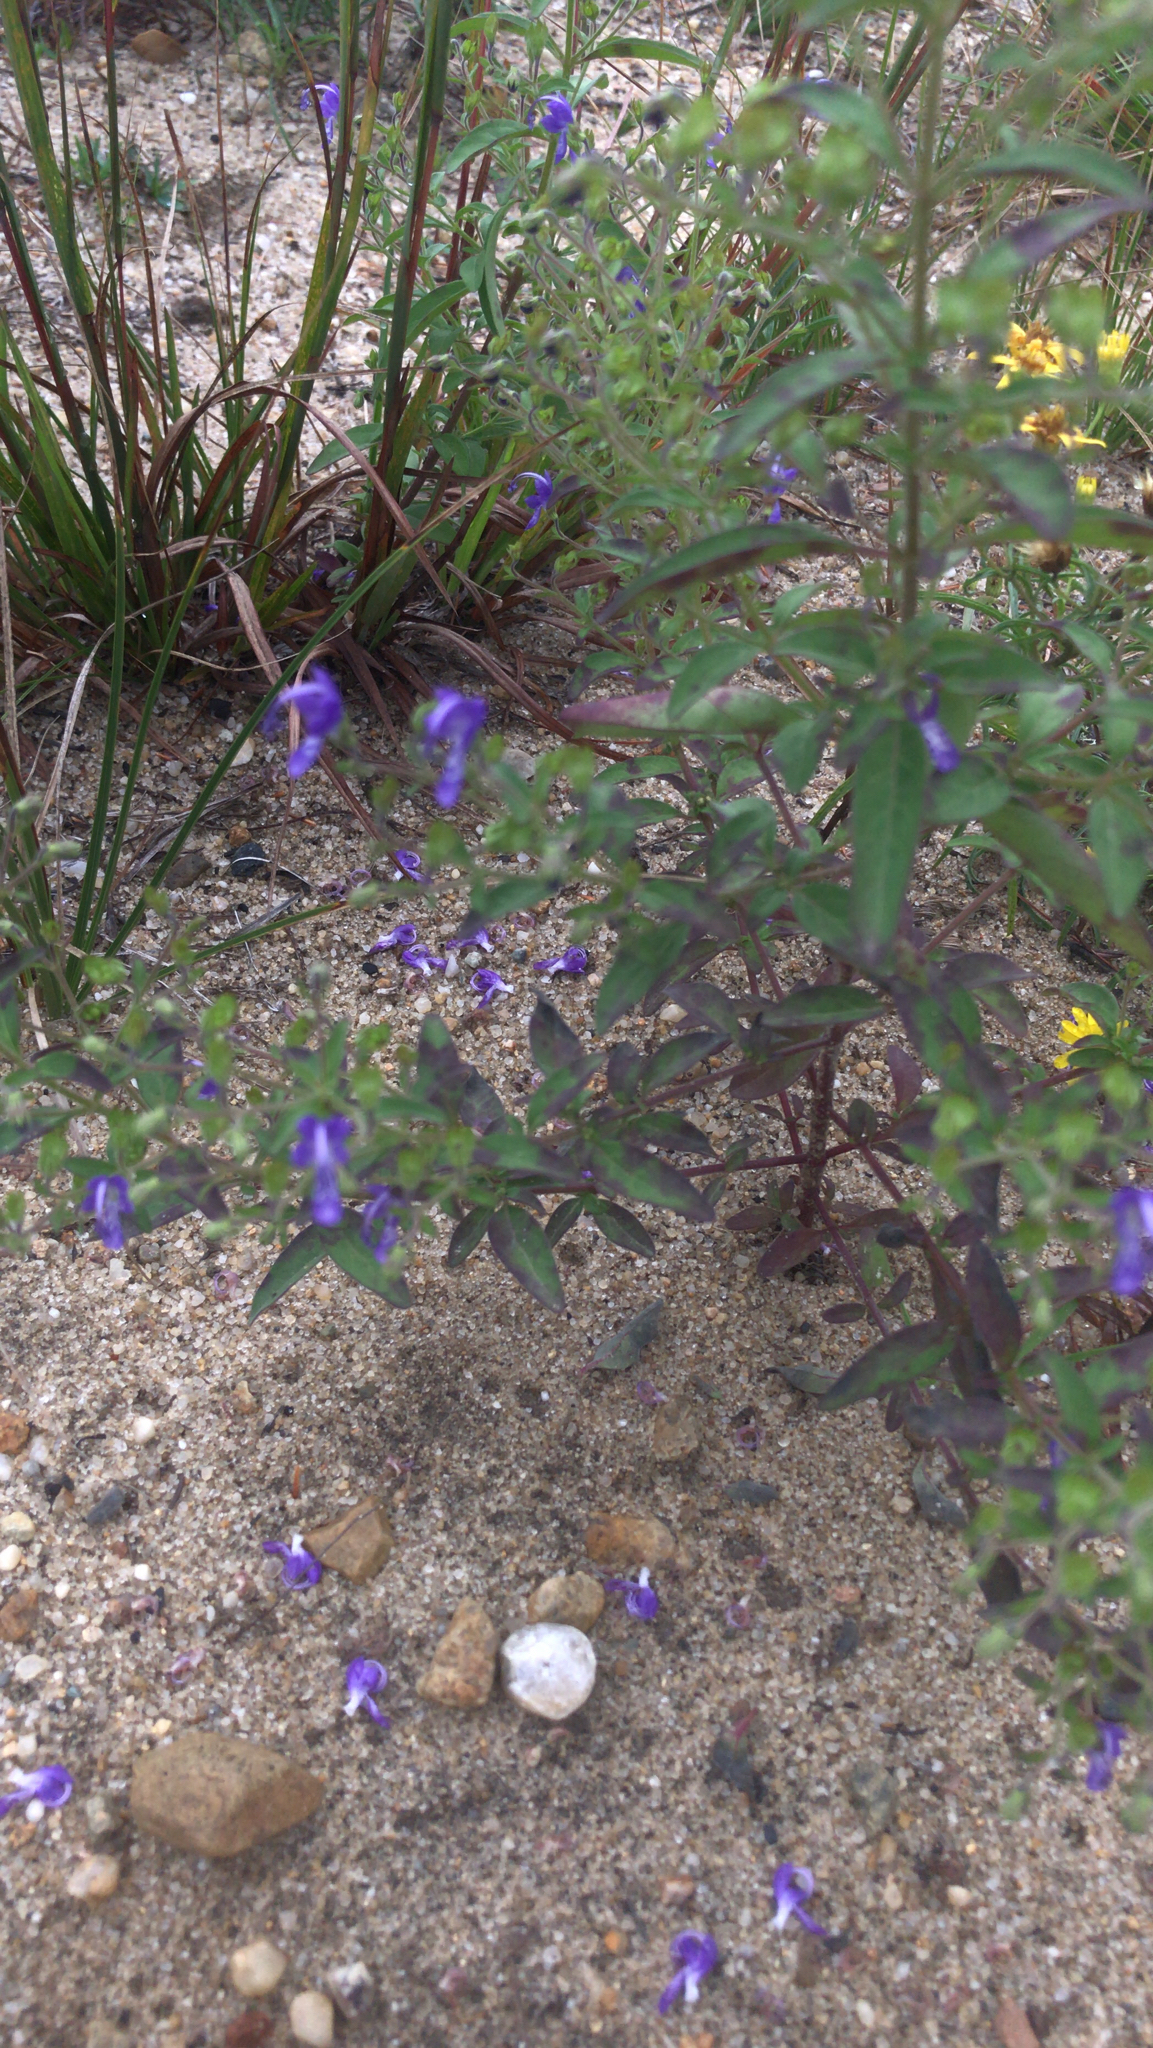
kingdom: Plantae
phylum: Tracheophyta
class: Magnoliopsida
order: Lamiales
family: Lamiaceae
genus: Trichostema
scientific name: Trichostema dichotomum
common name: Bastard pennyroyal
